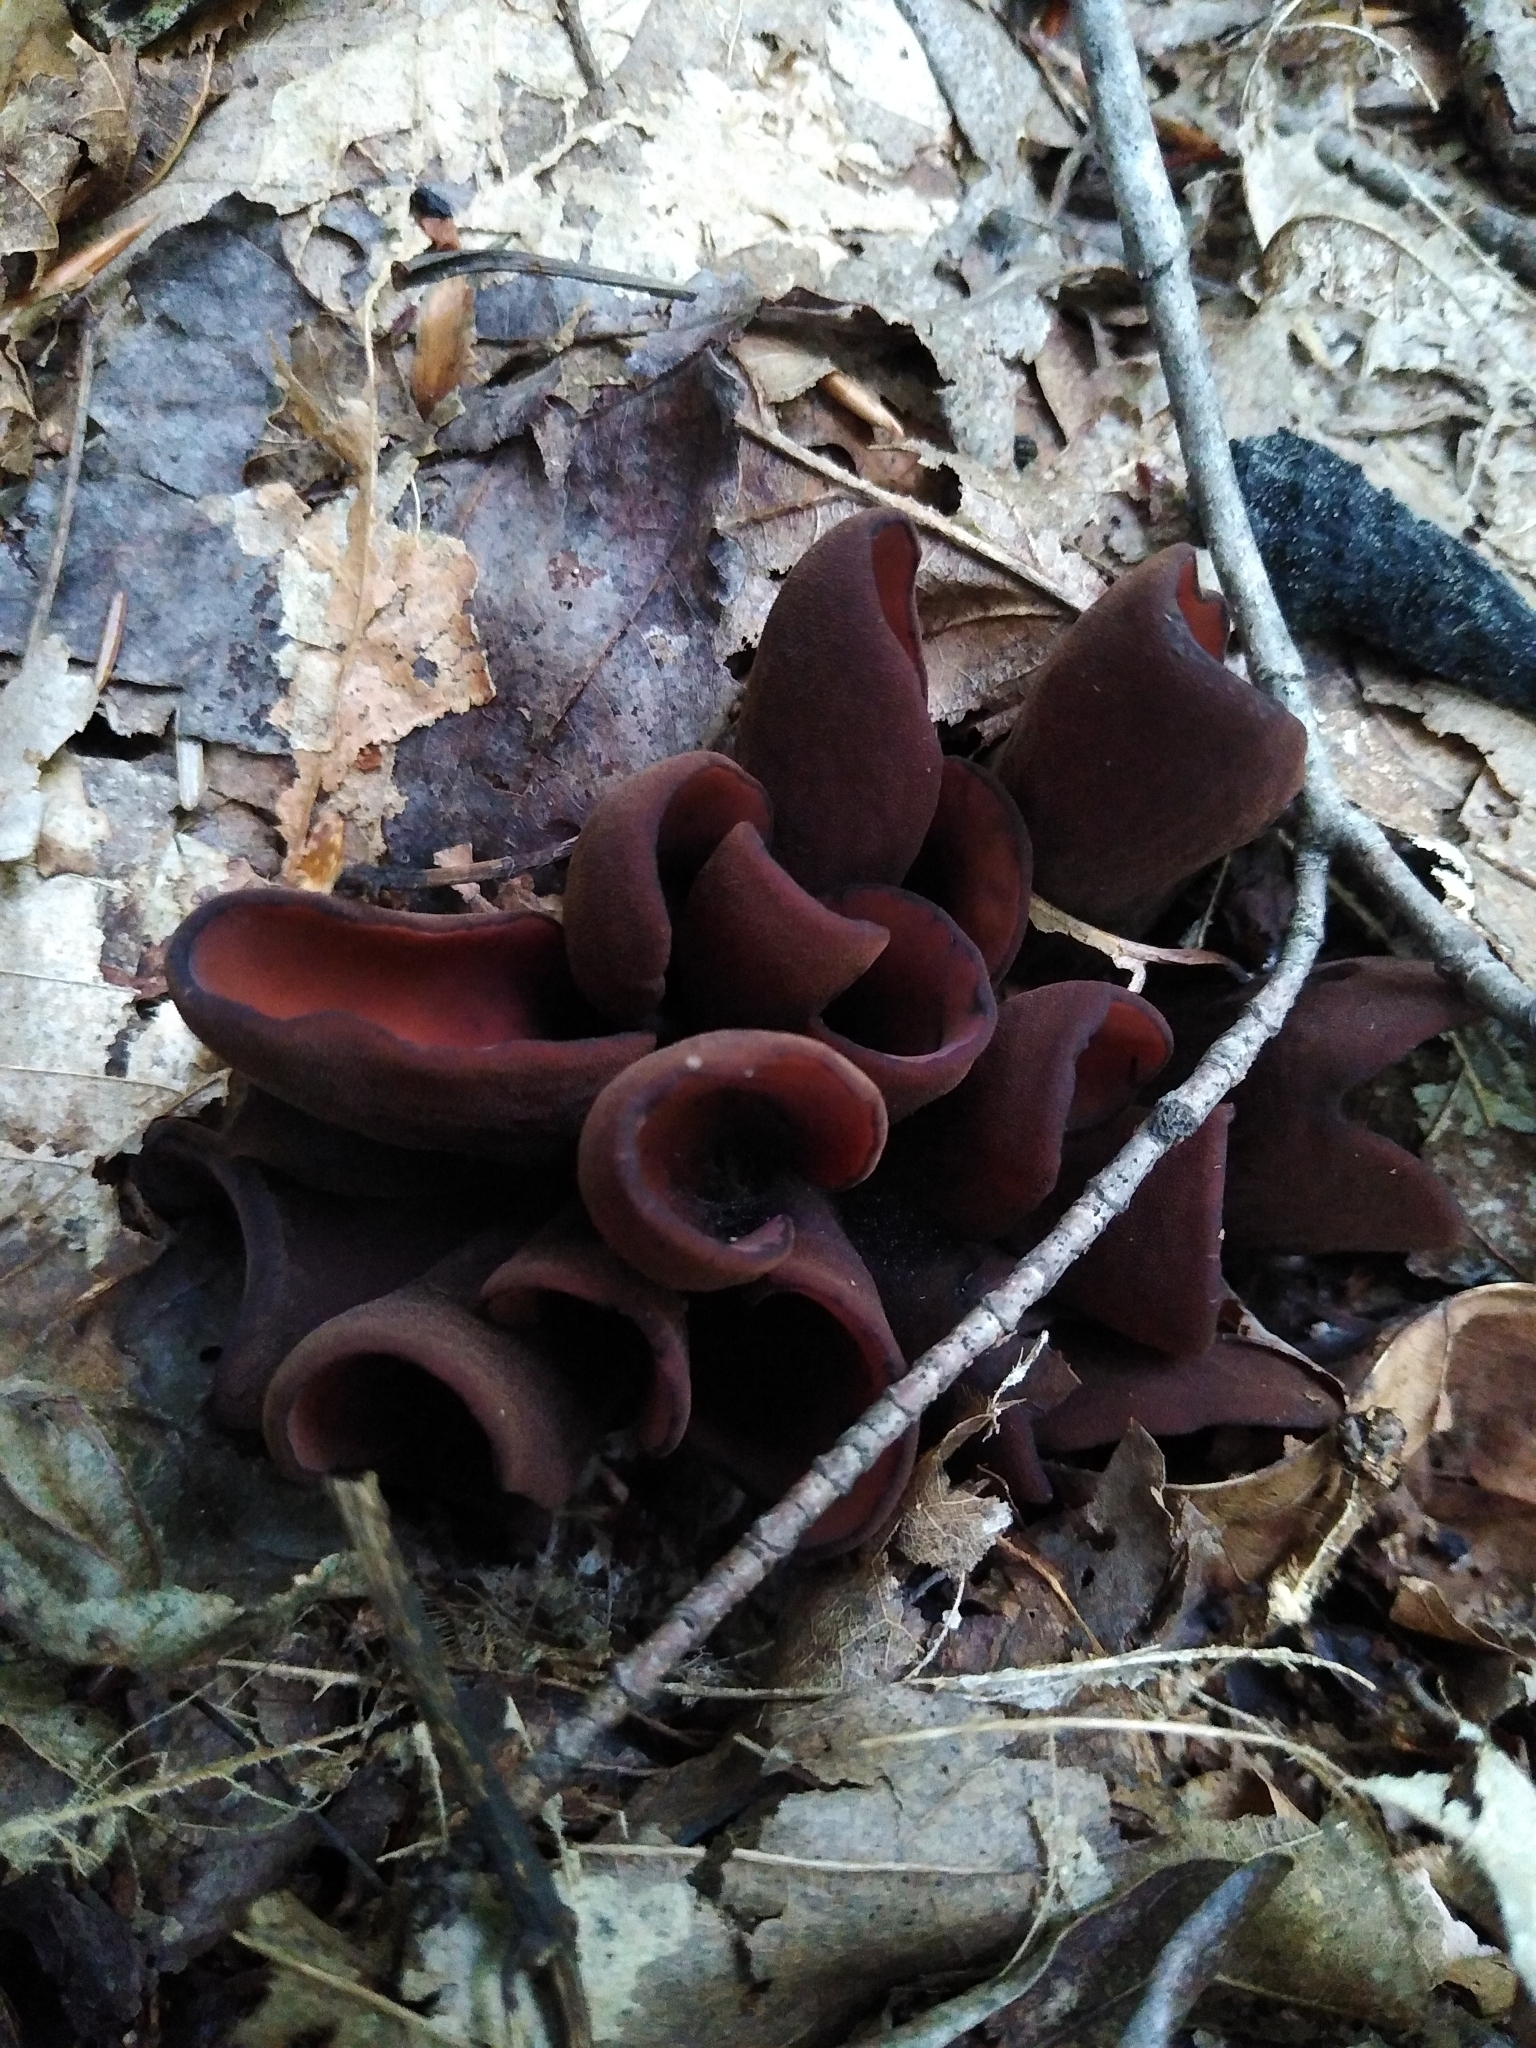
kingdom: Fungi
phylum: Ascomycota
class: Pezizomycetes
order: Pezizales
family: Wynneaceae
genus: Wynnea
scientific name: Wynnea americana
